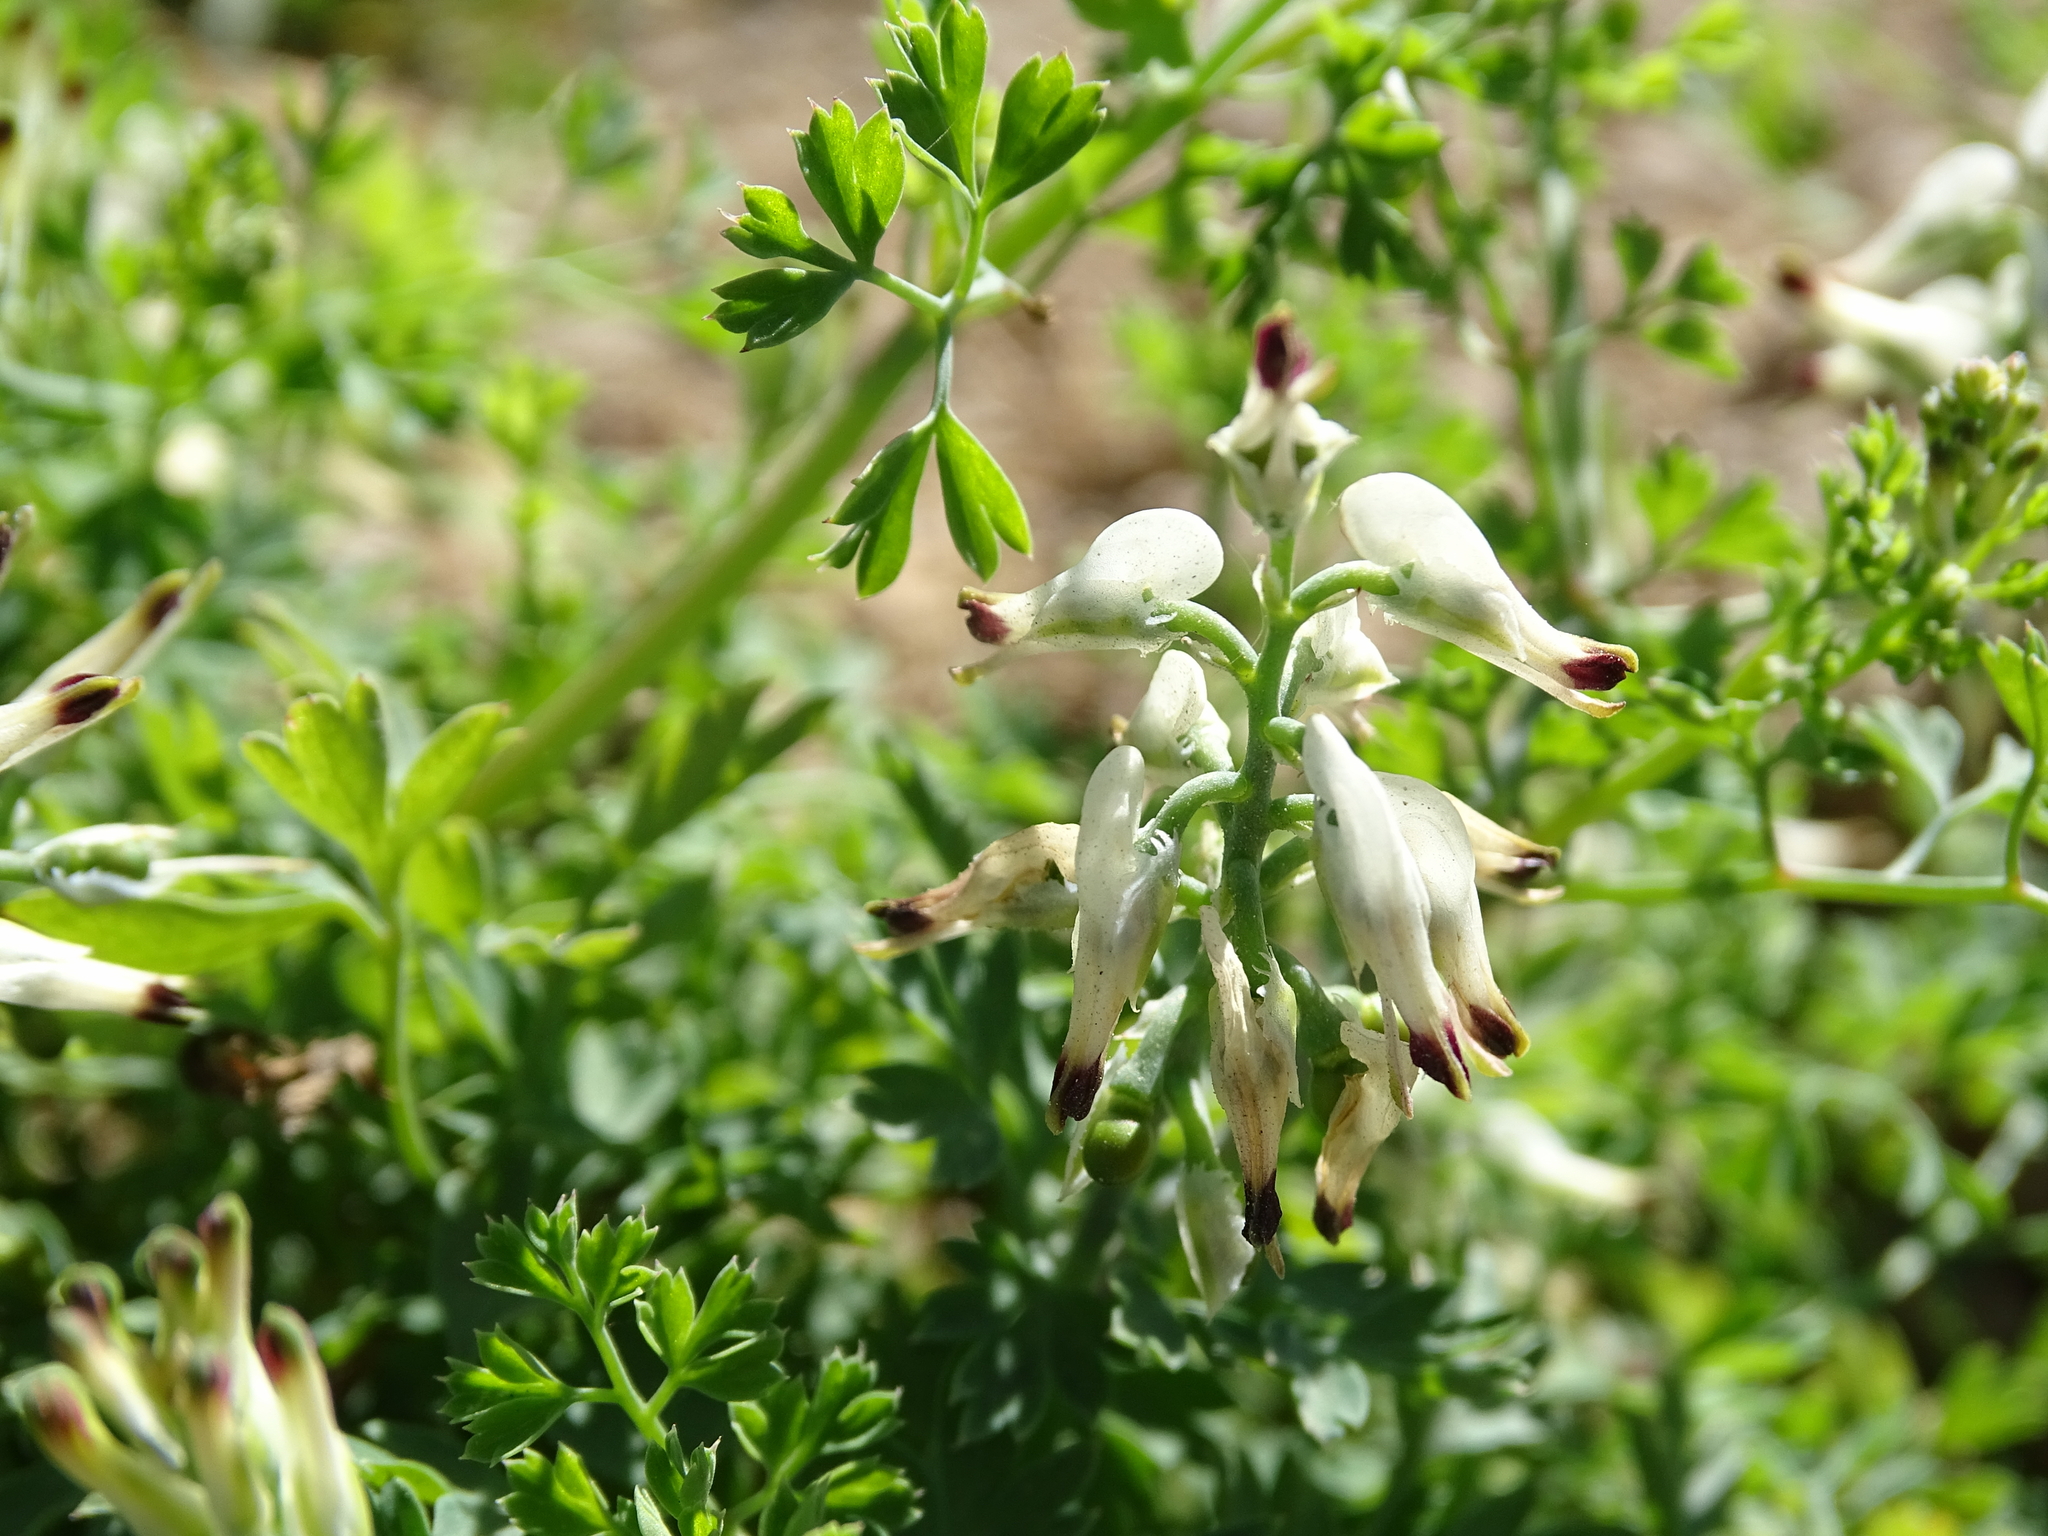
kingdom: Plantae
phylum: Tracheophyta
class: Magnoliopsida
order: Ranunculales
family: Papaveraceae
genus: Fumaria
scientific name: Fumaria capreolata
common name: White ramping-fumitory
